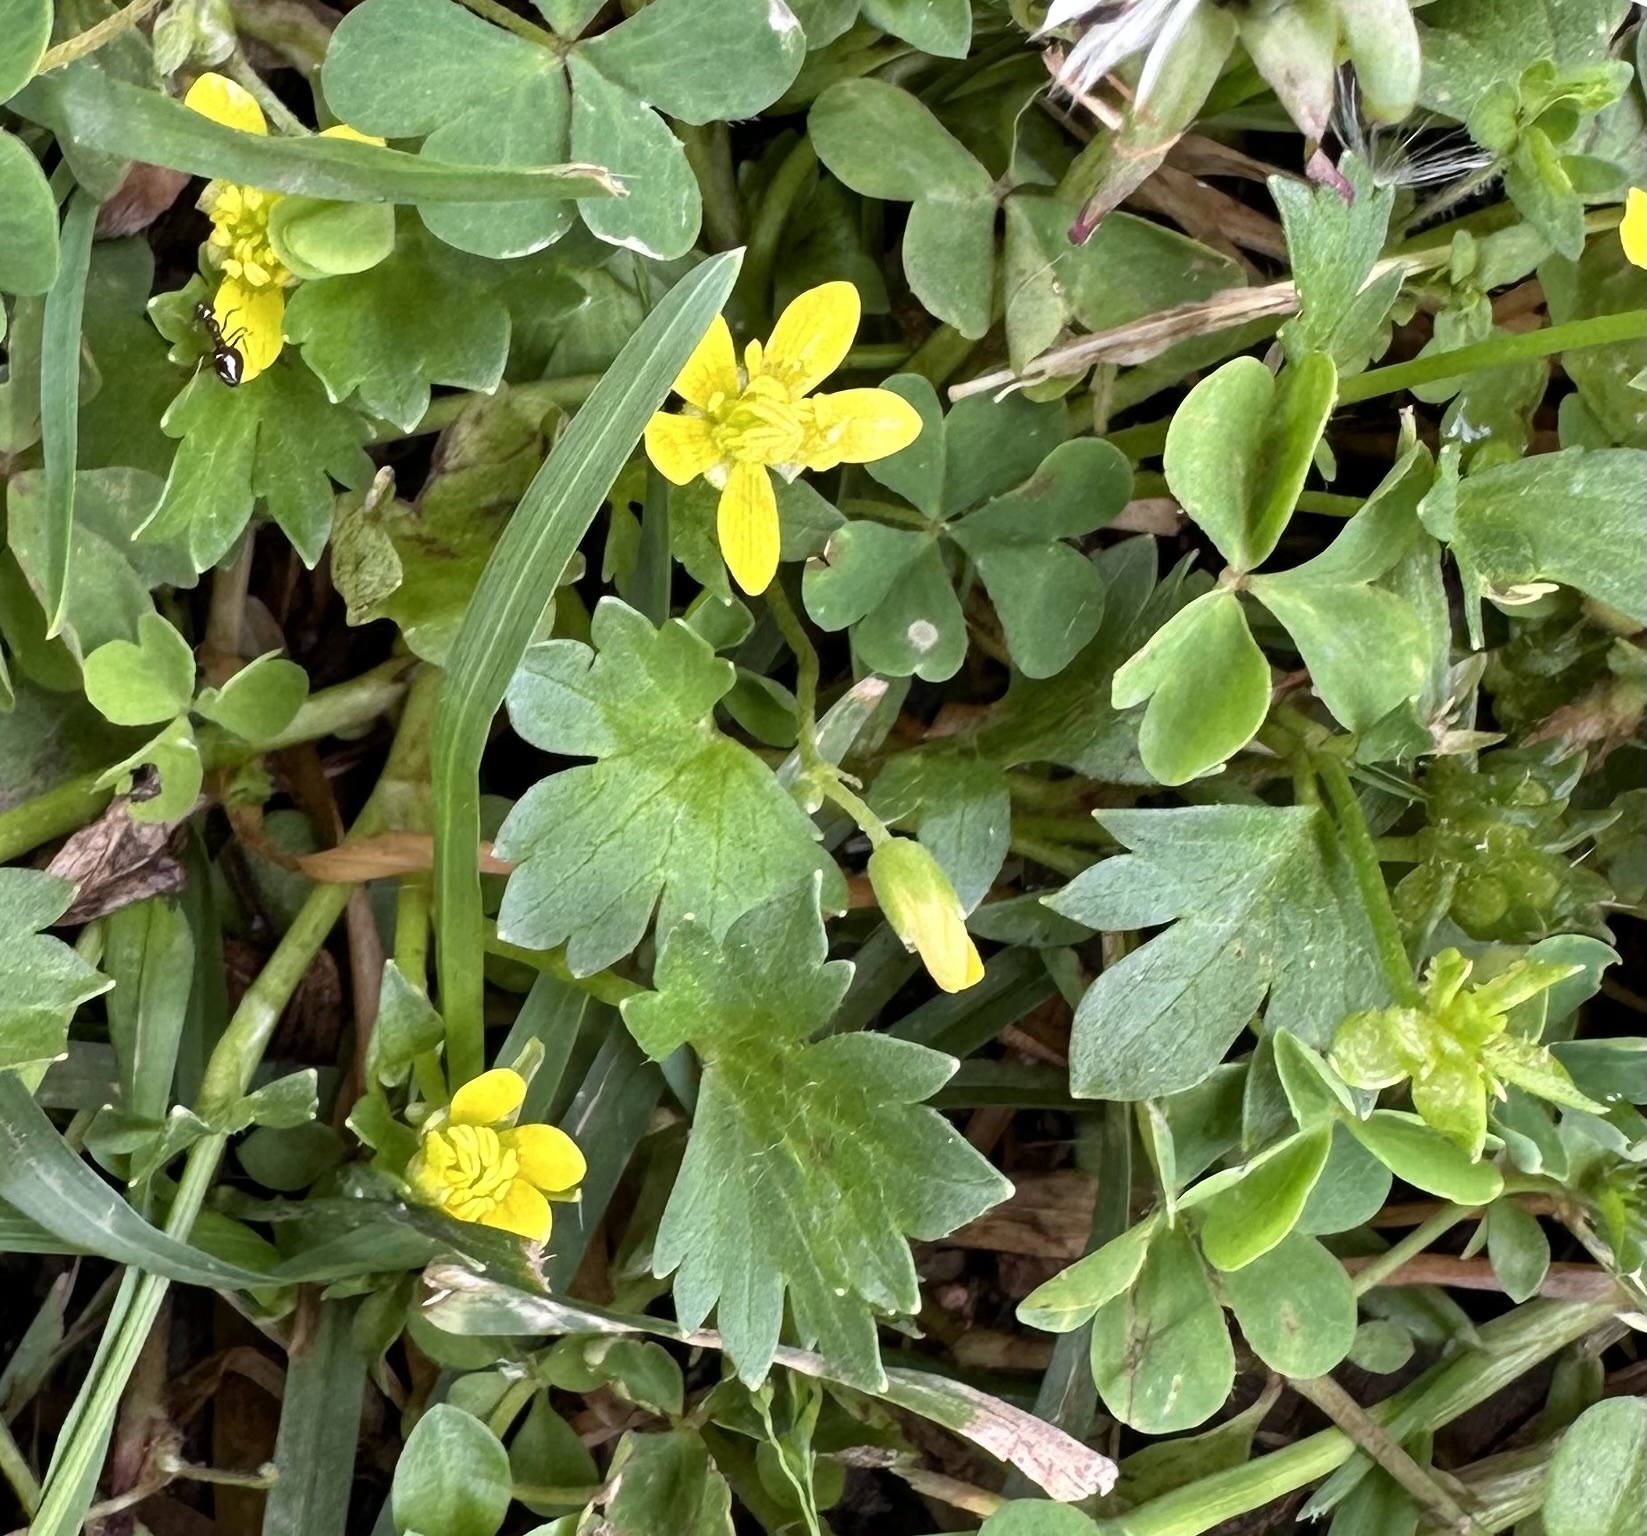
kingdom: Plantae
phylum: Tracheophyta
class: Magnoliopsida
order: Ranunculales
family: Ranunculaceae
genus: Ranunculus
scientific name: Ranunculus muricatus
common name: Rough-fruited buttercup
